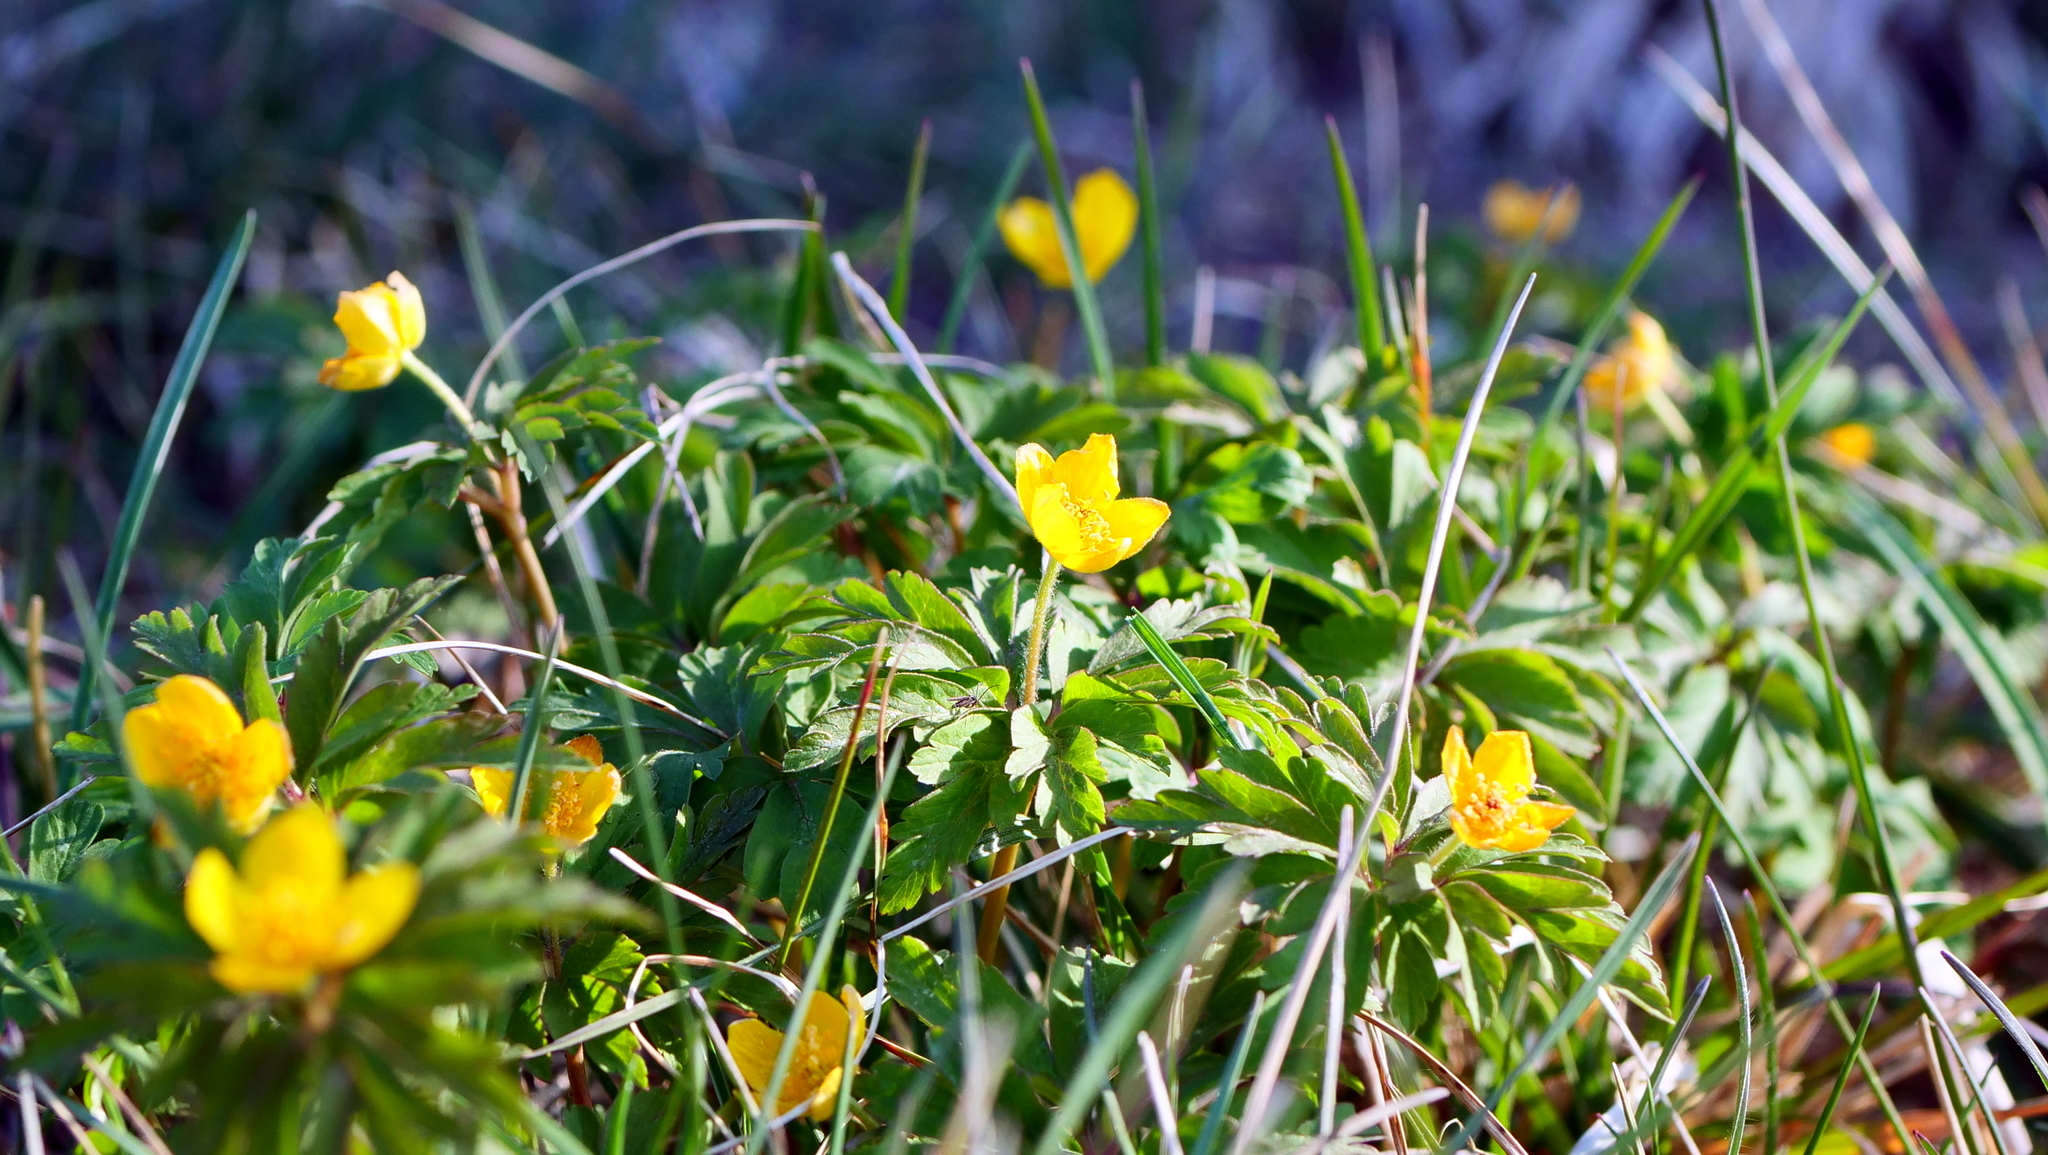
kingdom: Plantae
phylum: Tracheophyta
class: Magnoliopsida
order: Ranunculales
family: Ranunculaceae
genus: Anemone
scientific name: Anemone ranunculoides
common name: Yellow anemone
